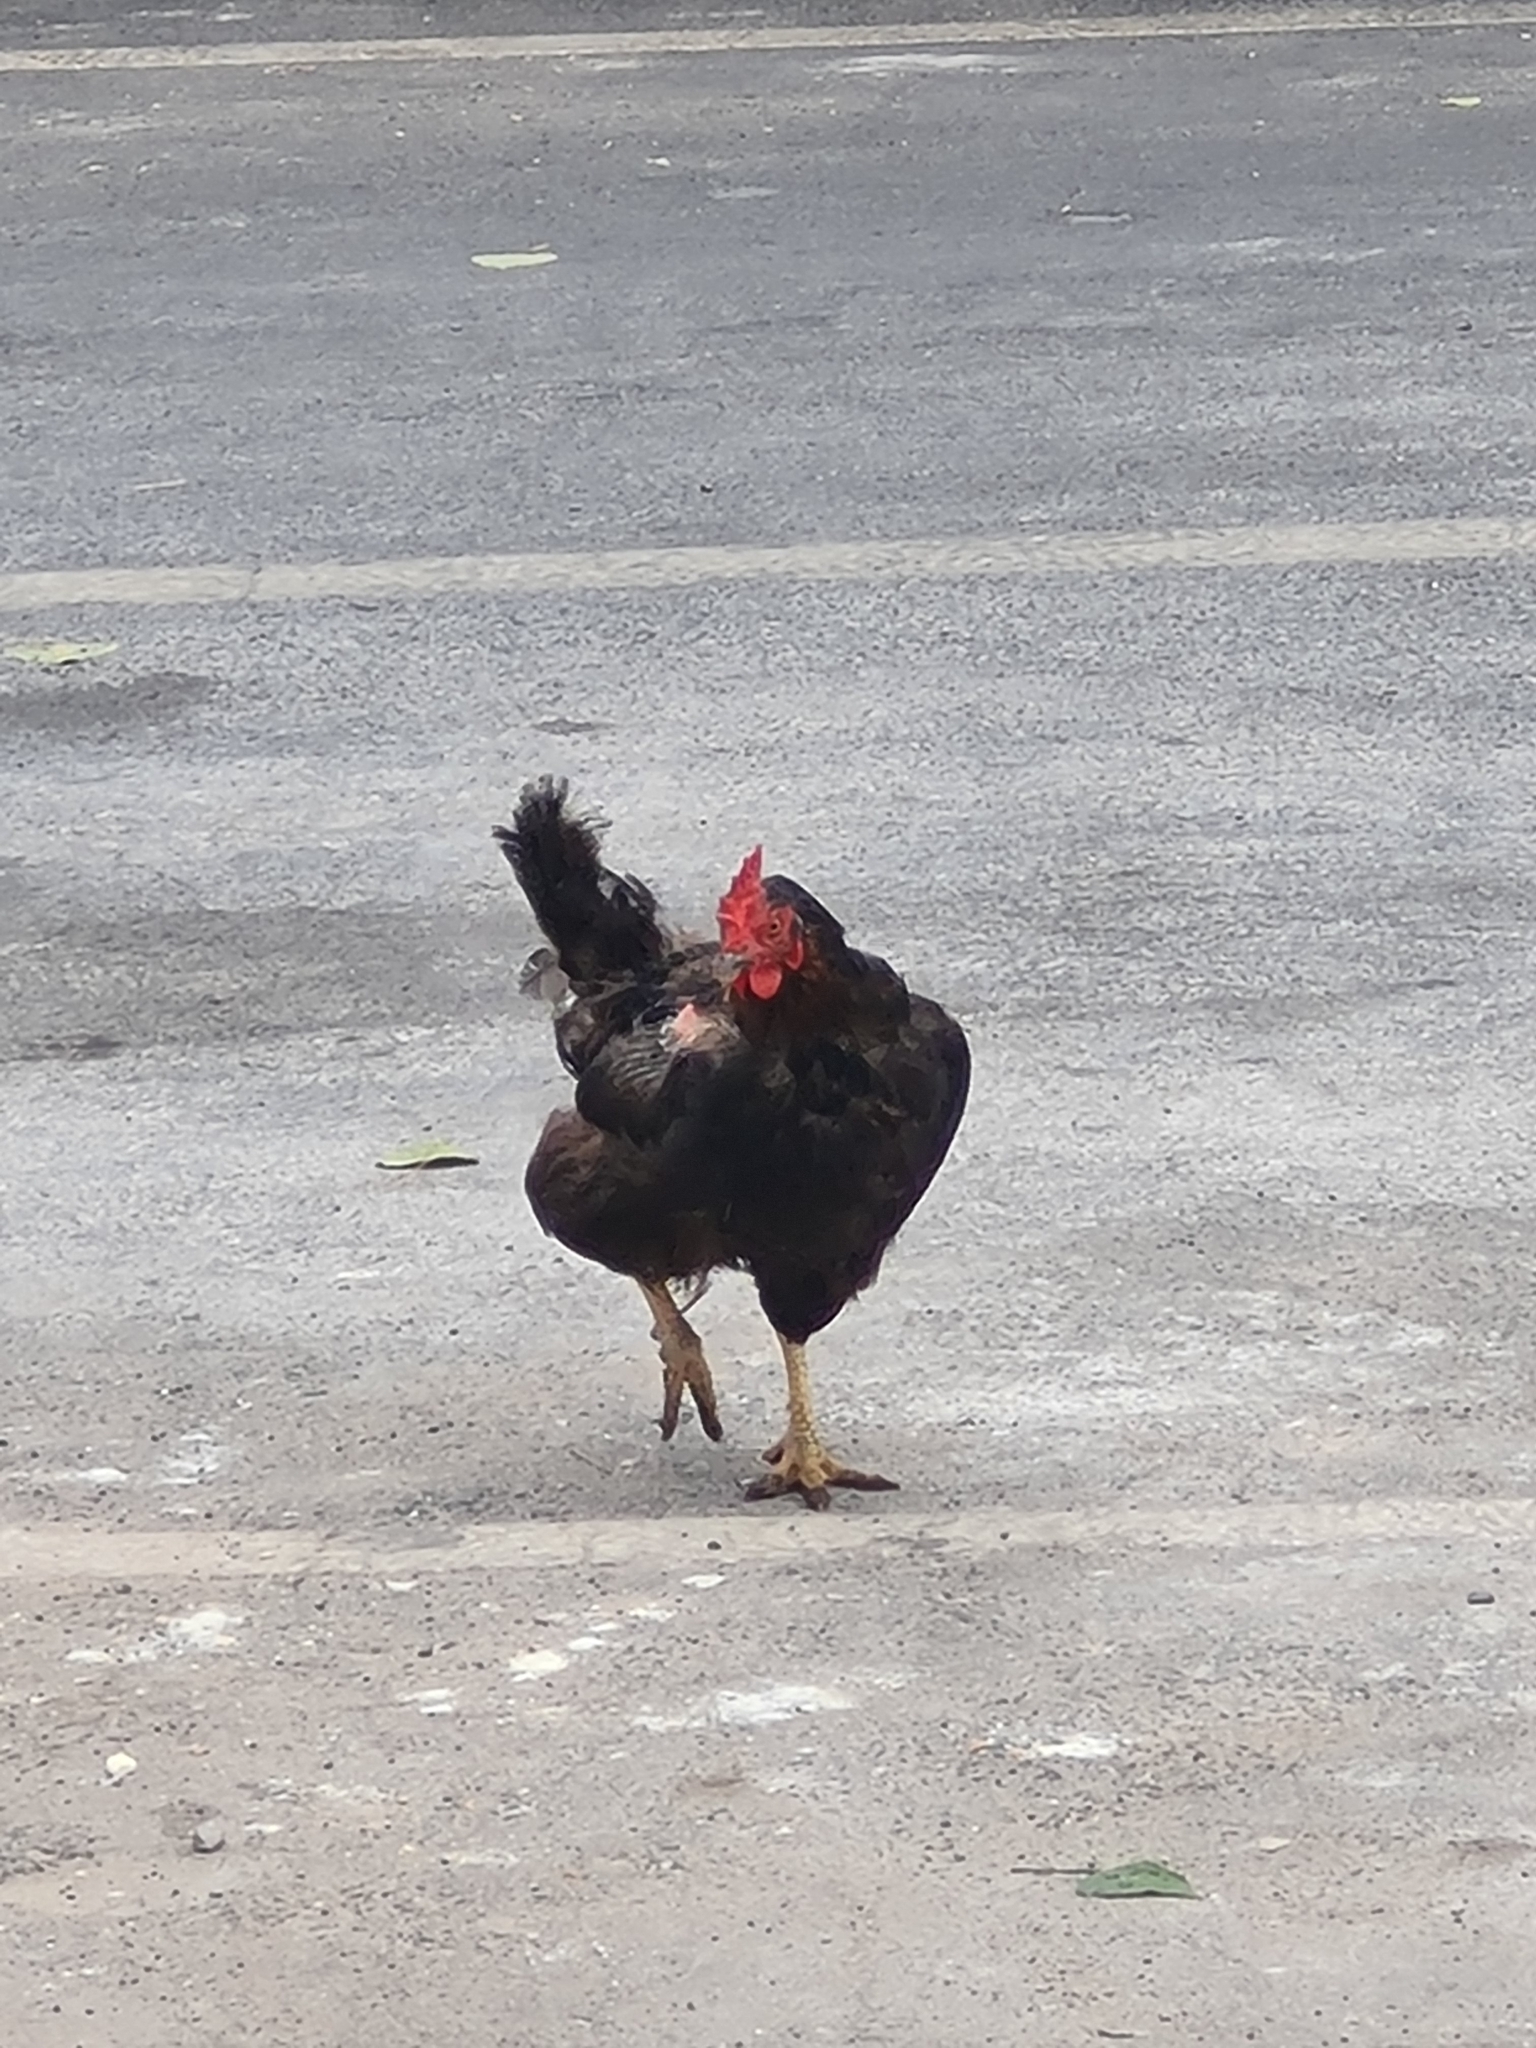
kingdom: Animalia
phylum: Chordata
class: Aves
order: Galliformes
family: Phasianidae
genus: Gallus
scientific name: Gallus gallus
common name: Red junglefowl
